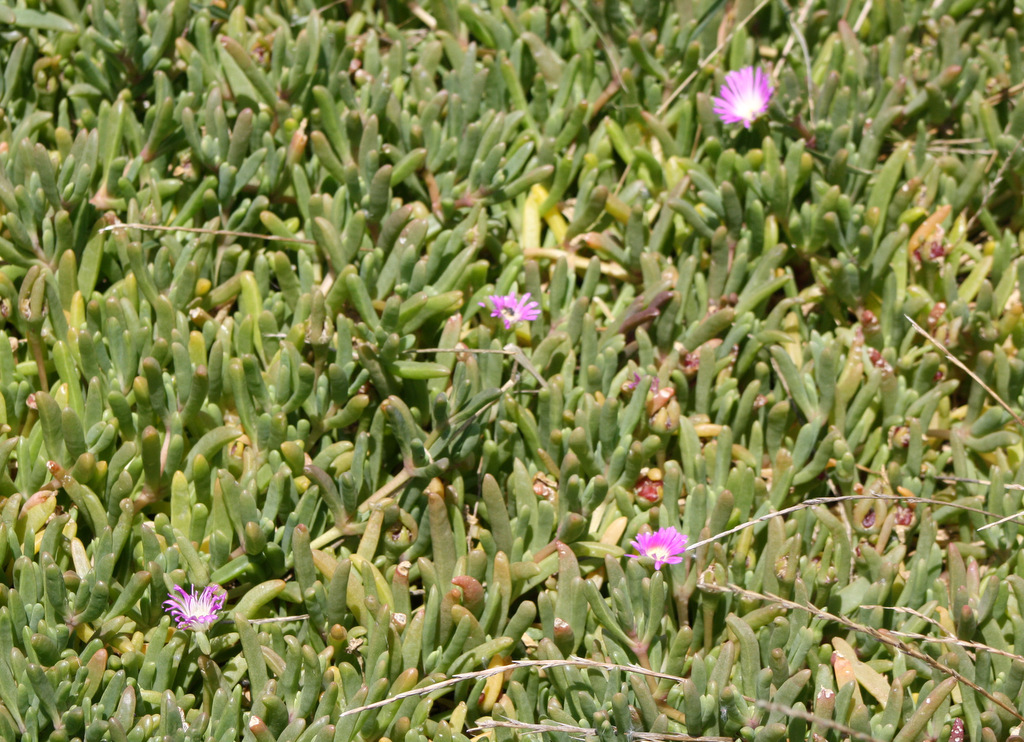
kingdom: Plantae
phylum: Tracheophyta
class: Magnoliopsida
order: Caryophyllales
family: Aizoaceae
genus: Carpobrotus
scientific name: Carpobrotus rossii
